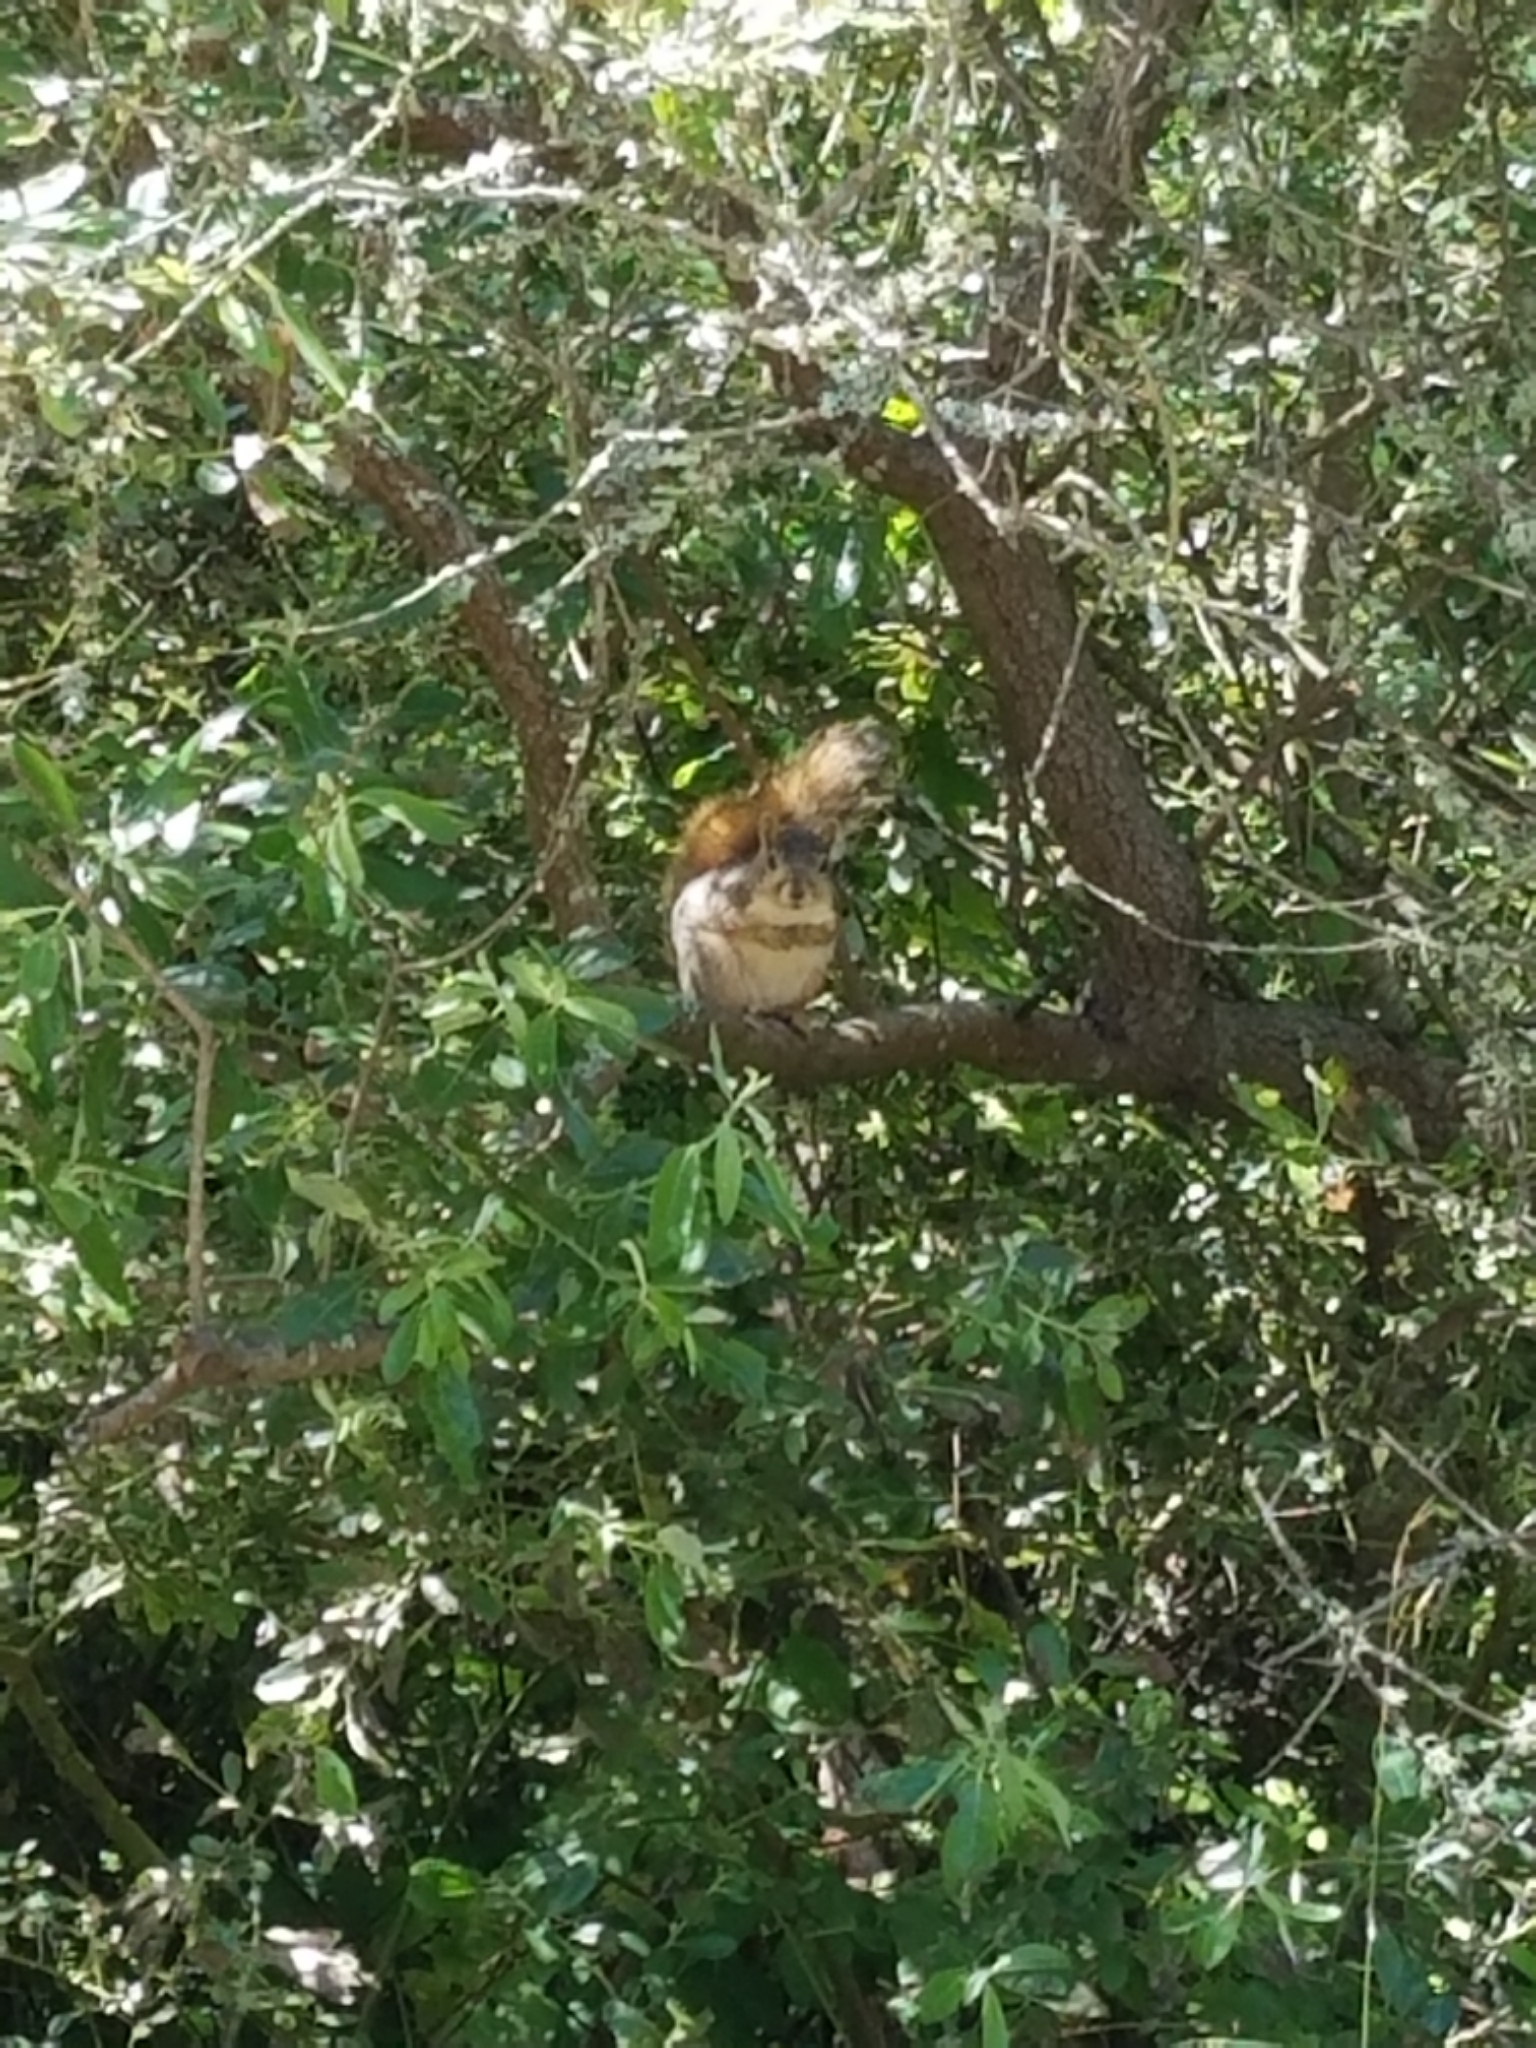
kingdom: Animalia
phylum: Chordata
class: Mammalia
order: Rodentia
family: Sciuridae
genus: Sciurus
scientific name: Sciurus niger
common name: Fox squirrel
